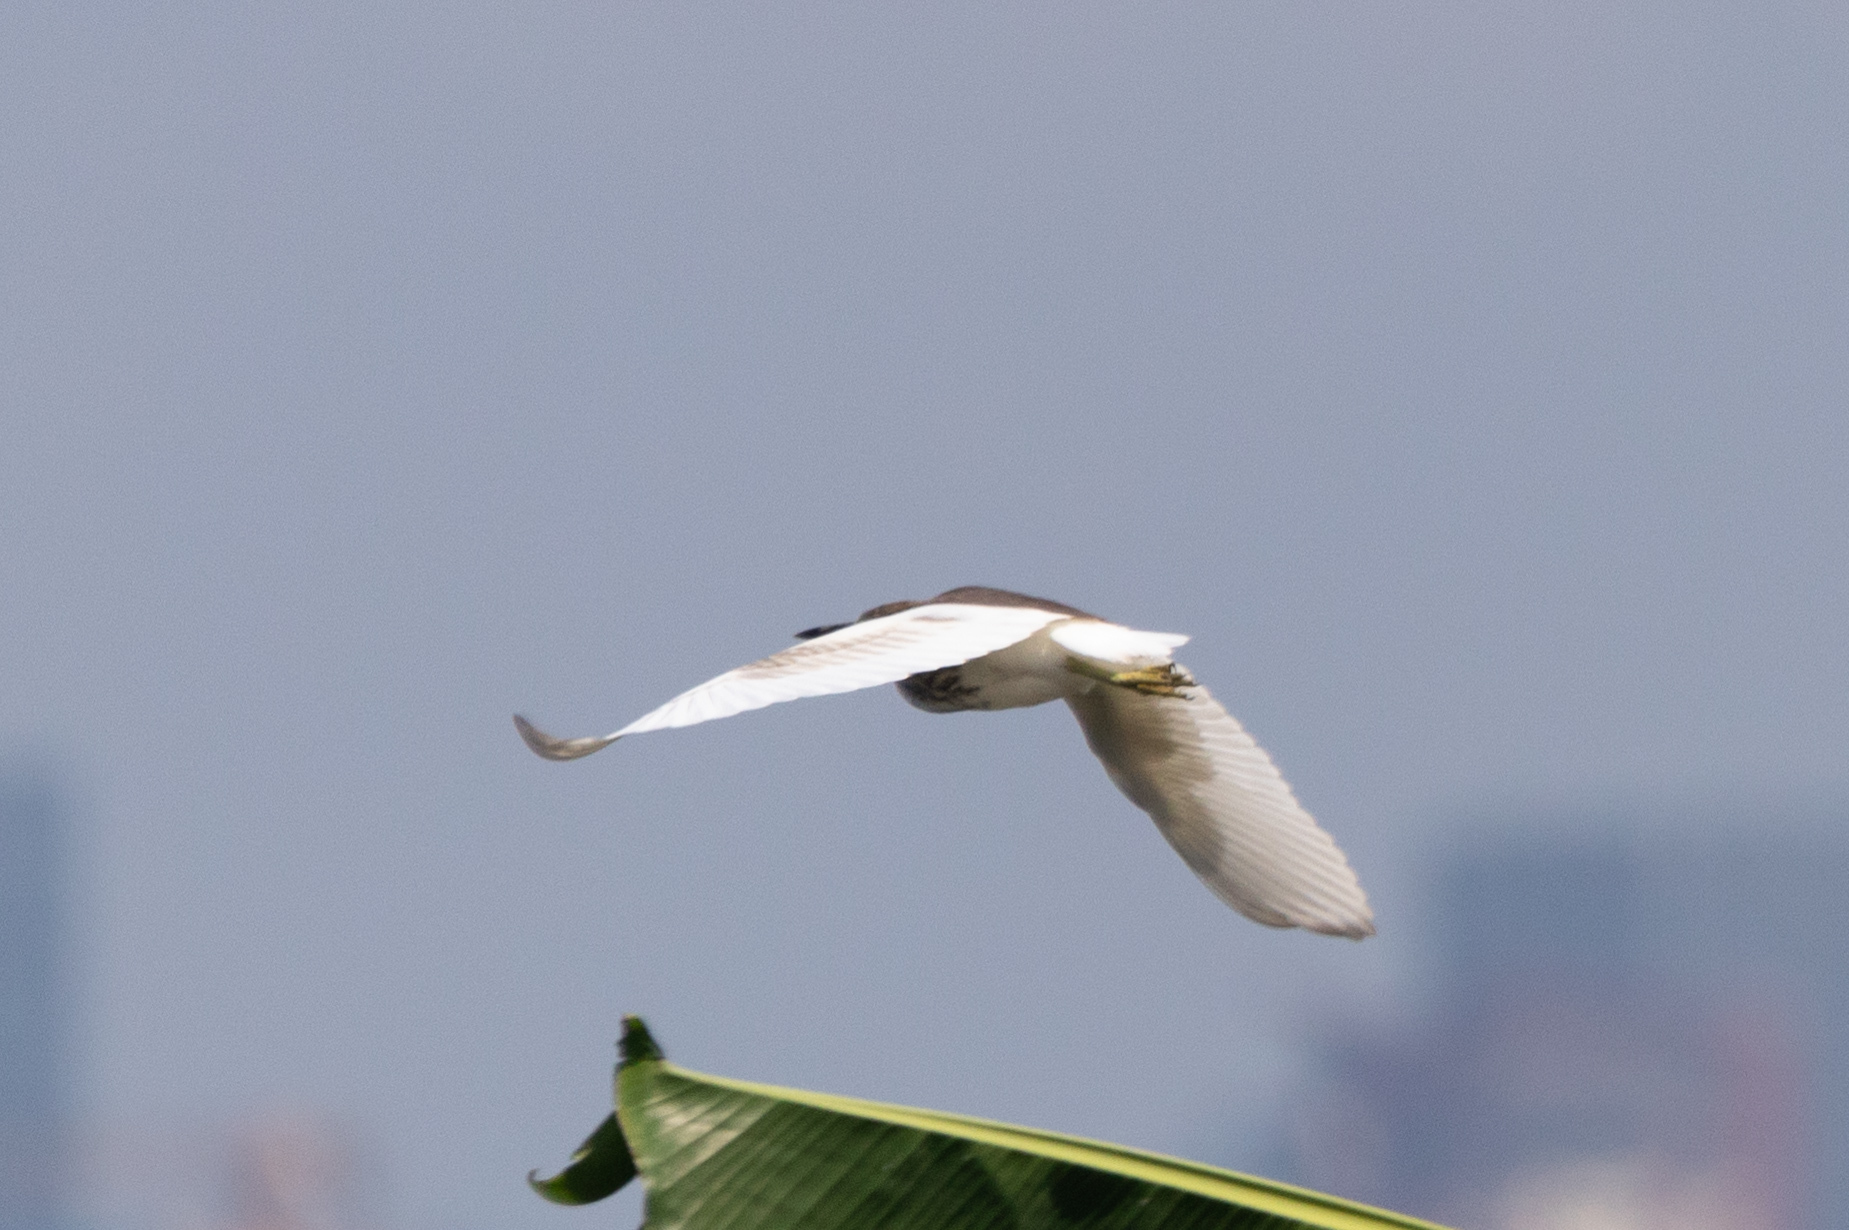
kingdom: Animalia
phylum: Chordata
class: Aves
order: Pelecaniformes
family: Ardeidae
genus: Ardeola
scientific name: Ardeola bacchus
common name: Chinese pond heron
